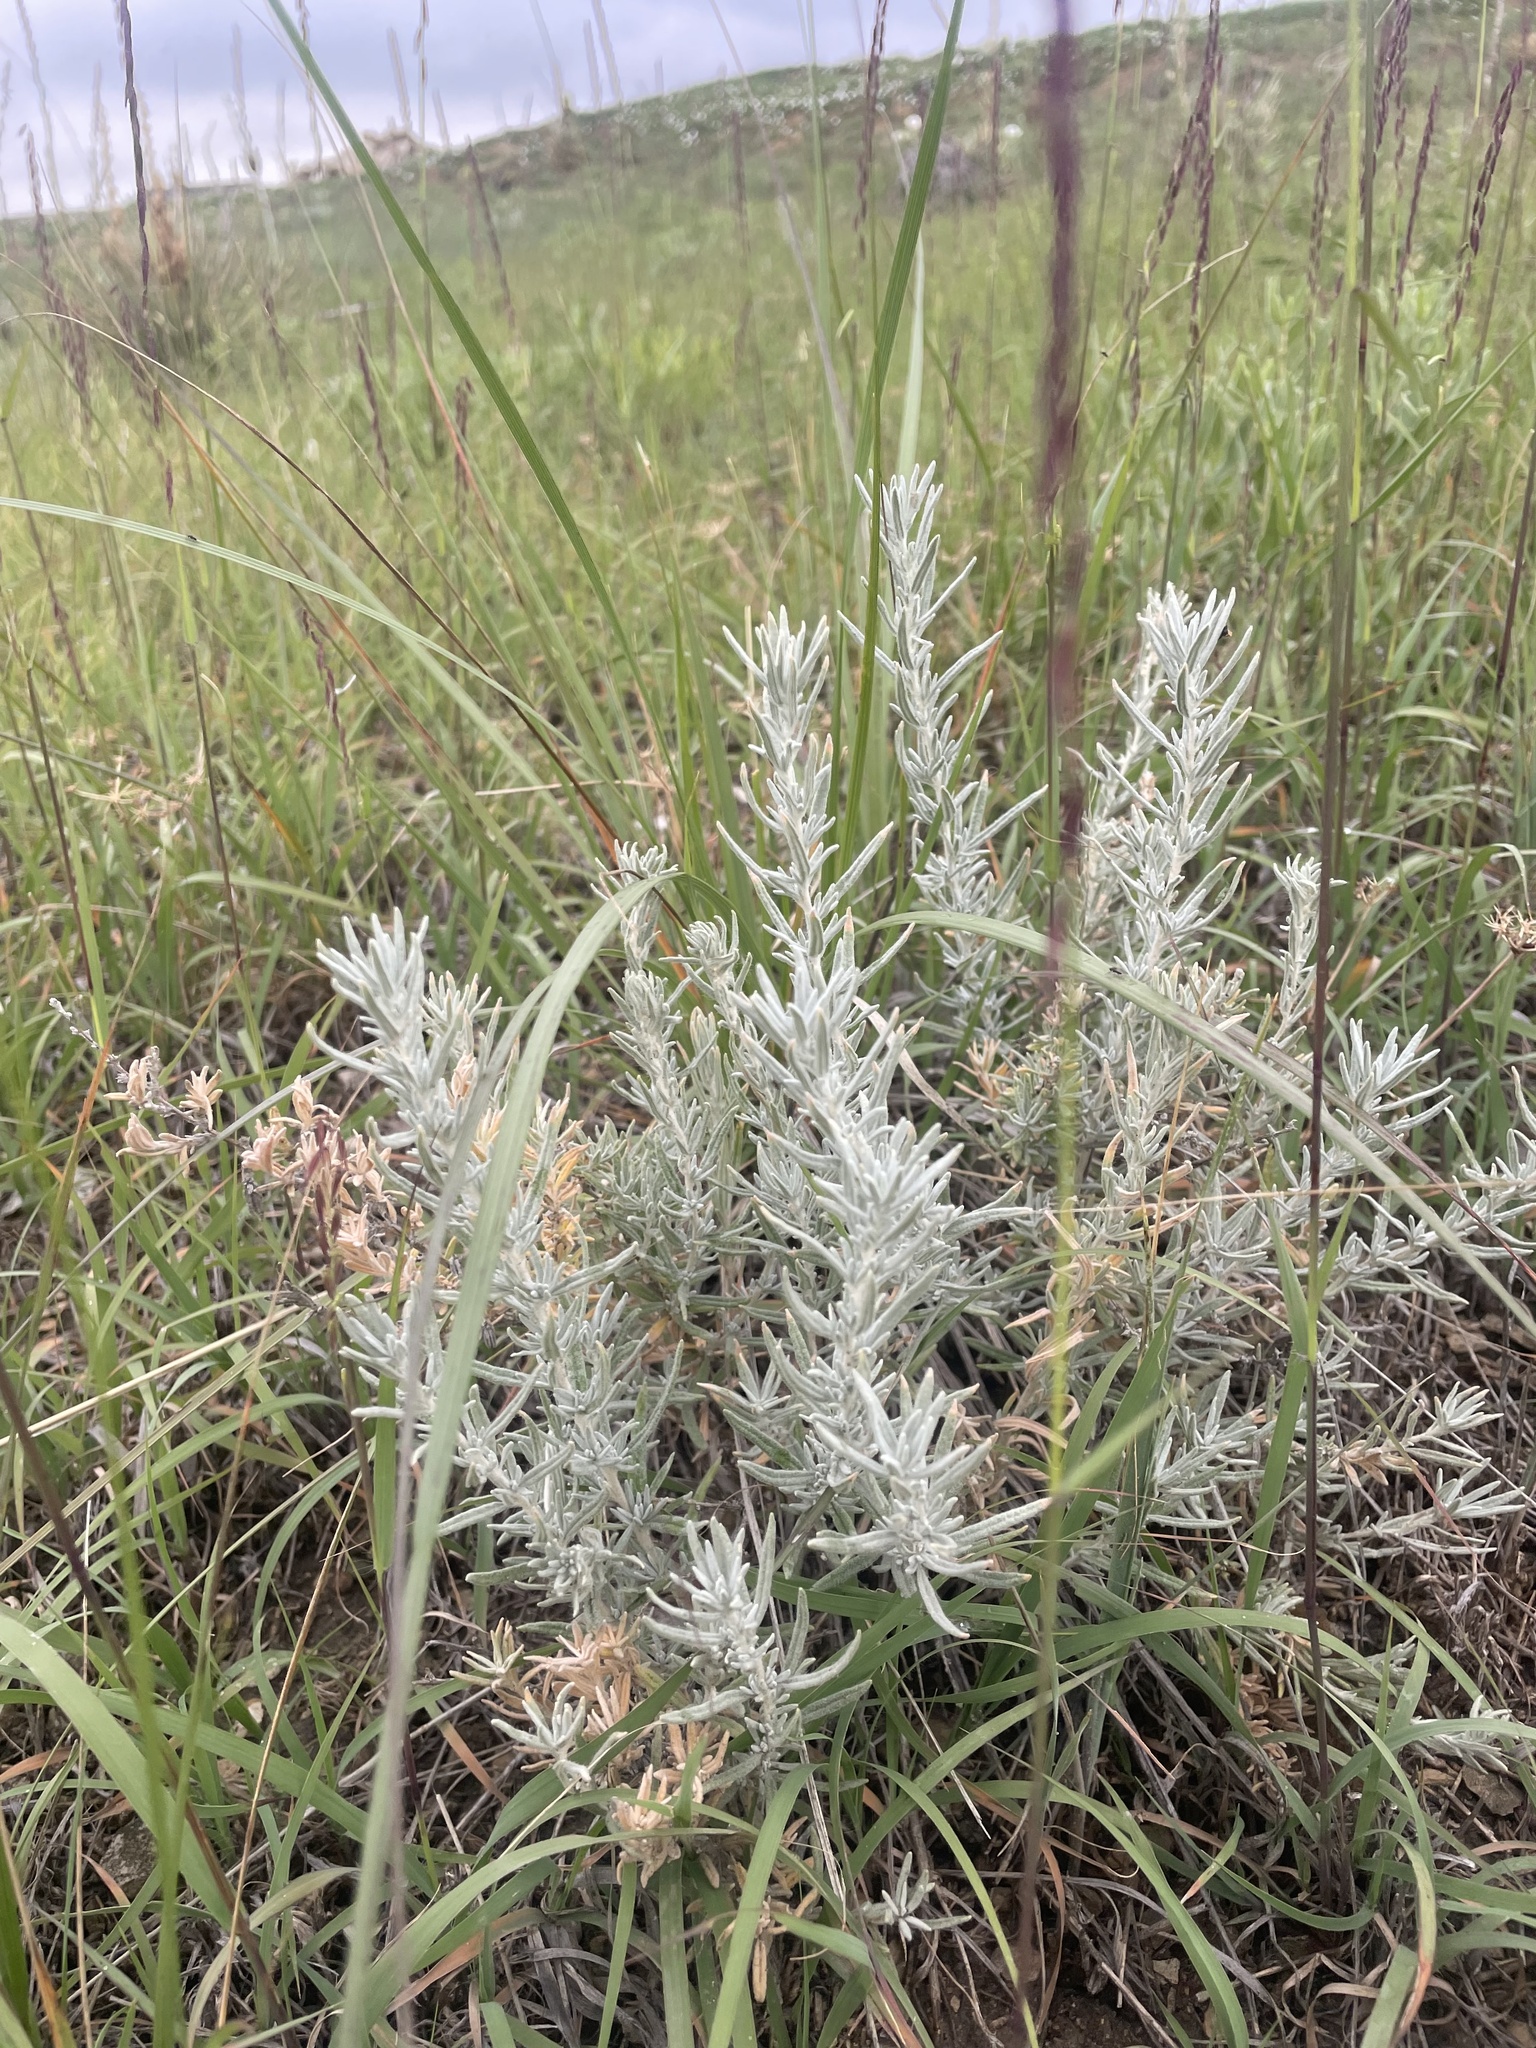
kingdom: Plantae
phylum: Tracheophyta
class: Magnoliopsida
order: Caryophyllales
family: Amaranthaceae
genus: Krascheninnikovia
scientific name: Krascheninnikovia lanata
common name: Winterfat
